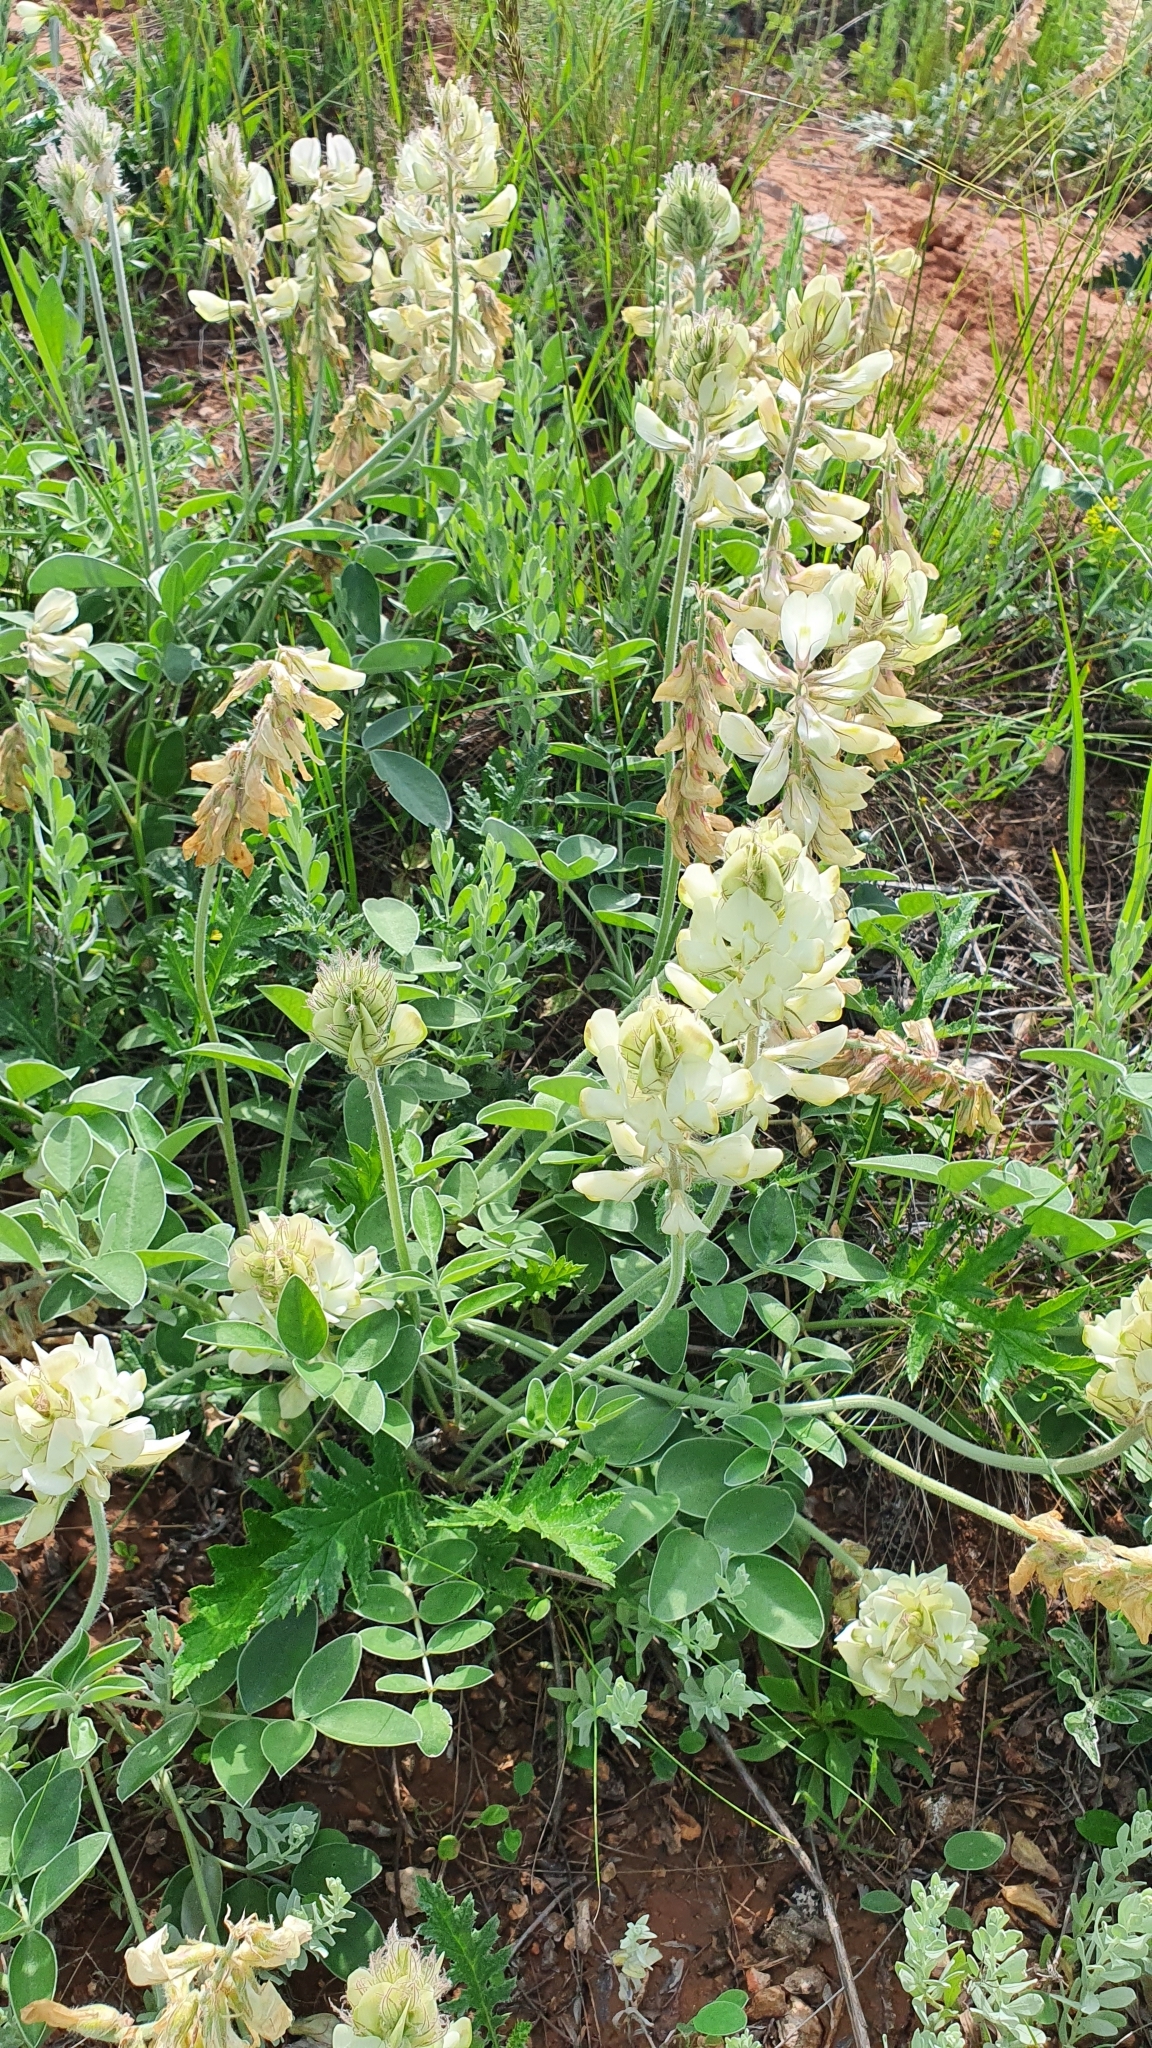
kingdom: Plantae
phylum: Tracheophyta
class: Magnoliopsida
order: Fabales
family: Fabaceae
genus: Hedysarum
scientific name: Hedysarum grandiflorum
